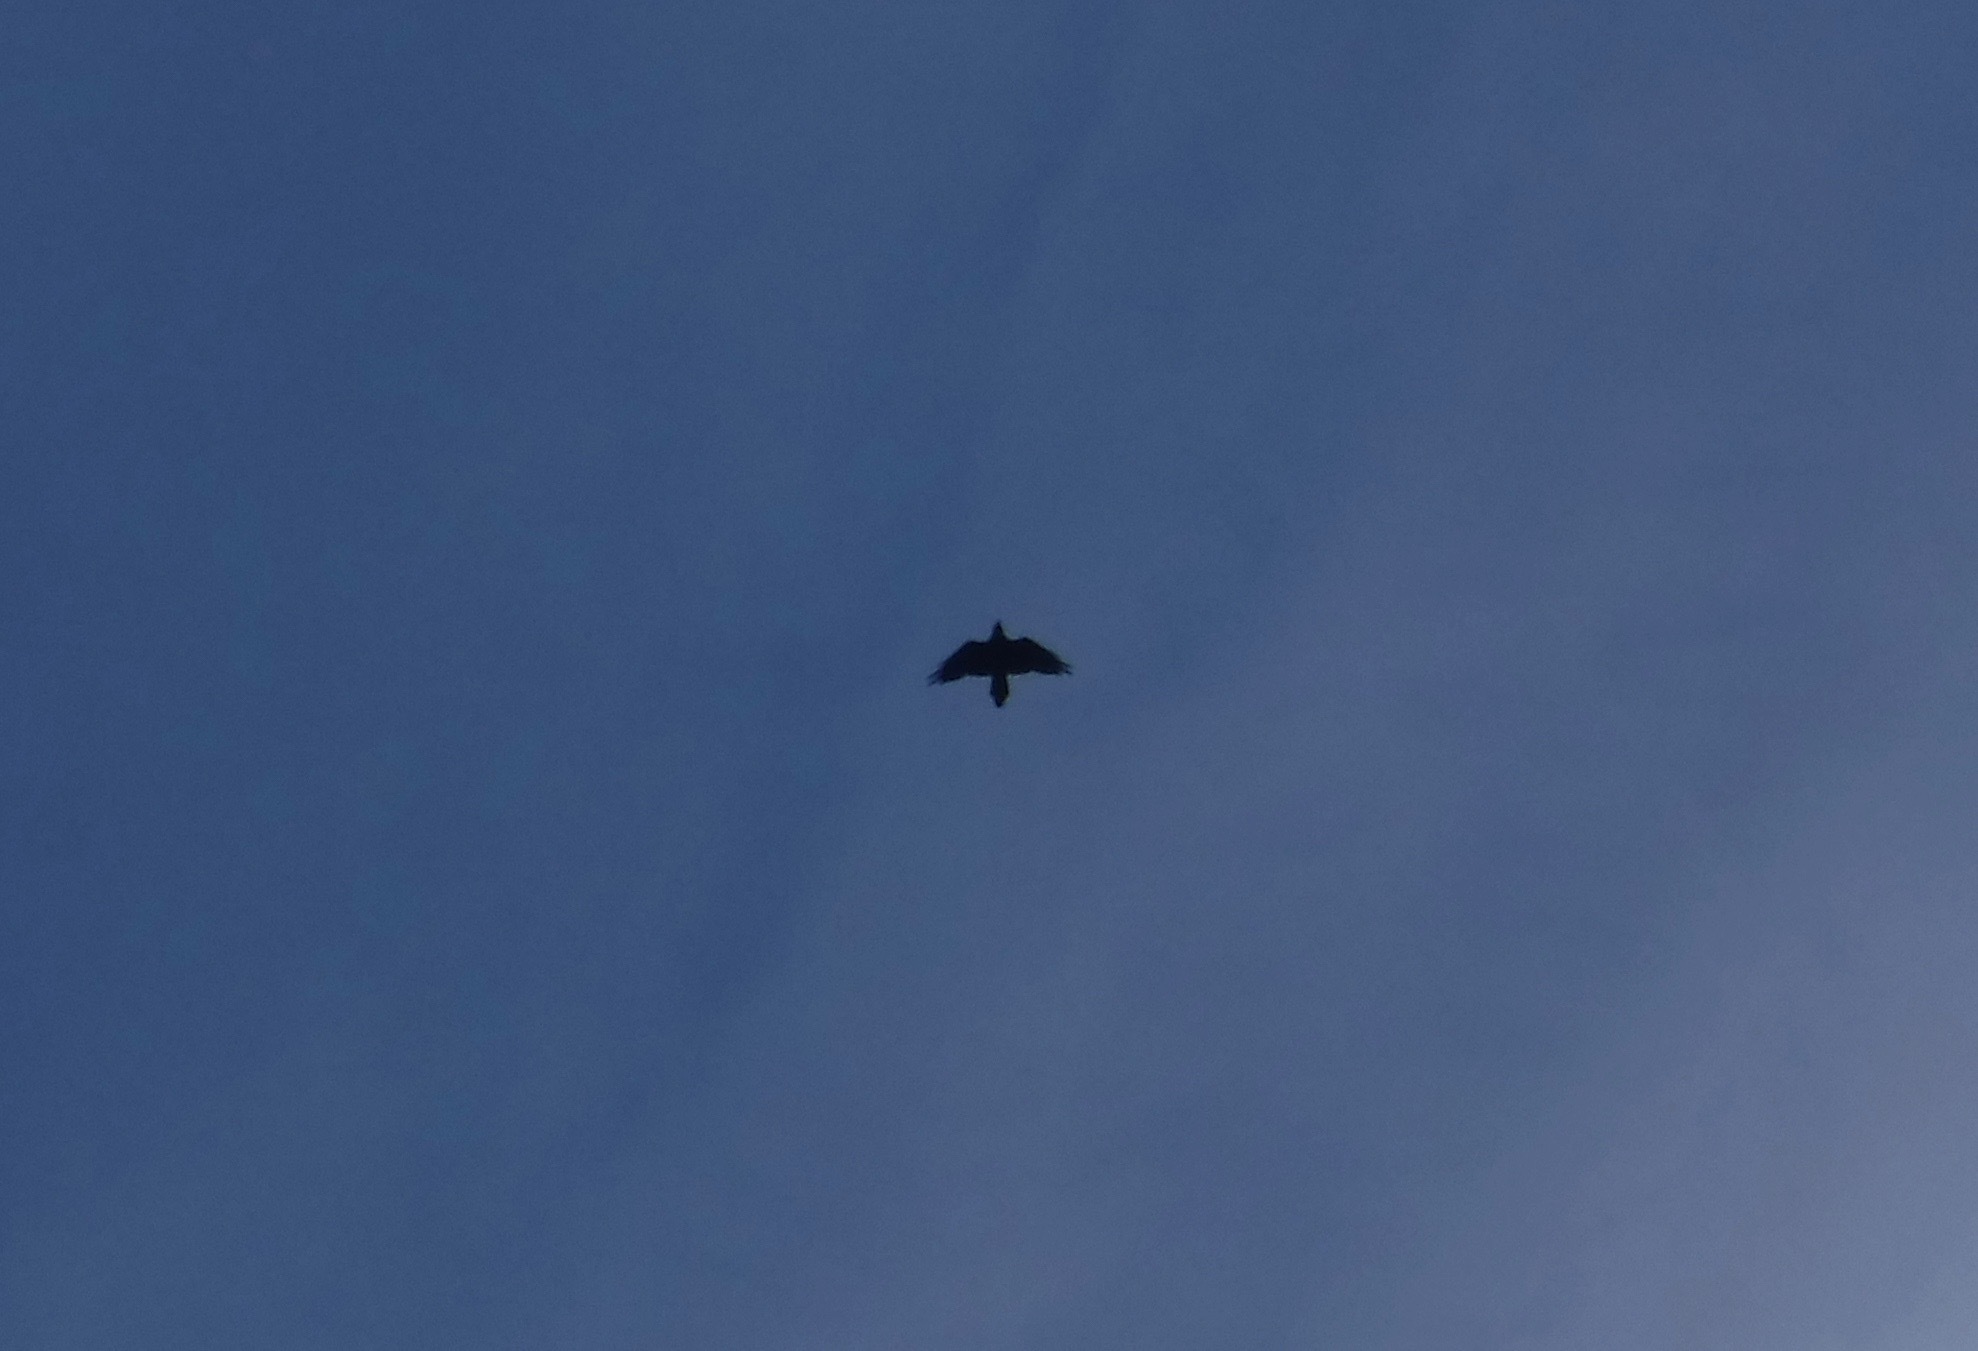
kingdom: Animalia
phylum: Chordata
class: Aves
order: Passeriformes
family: Corvidae
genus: Corvus
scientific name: Corvus corax
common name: Common raven
